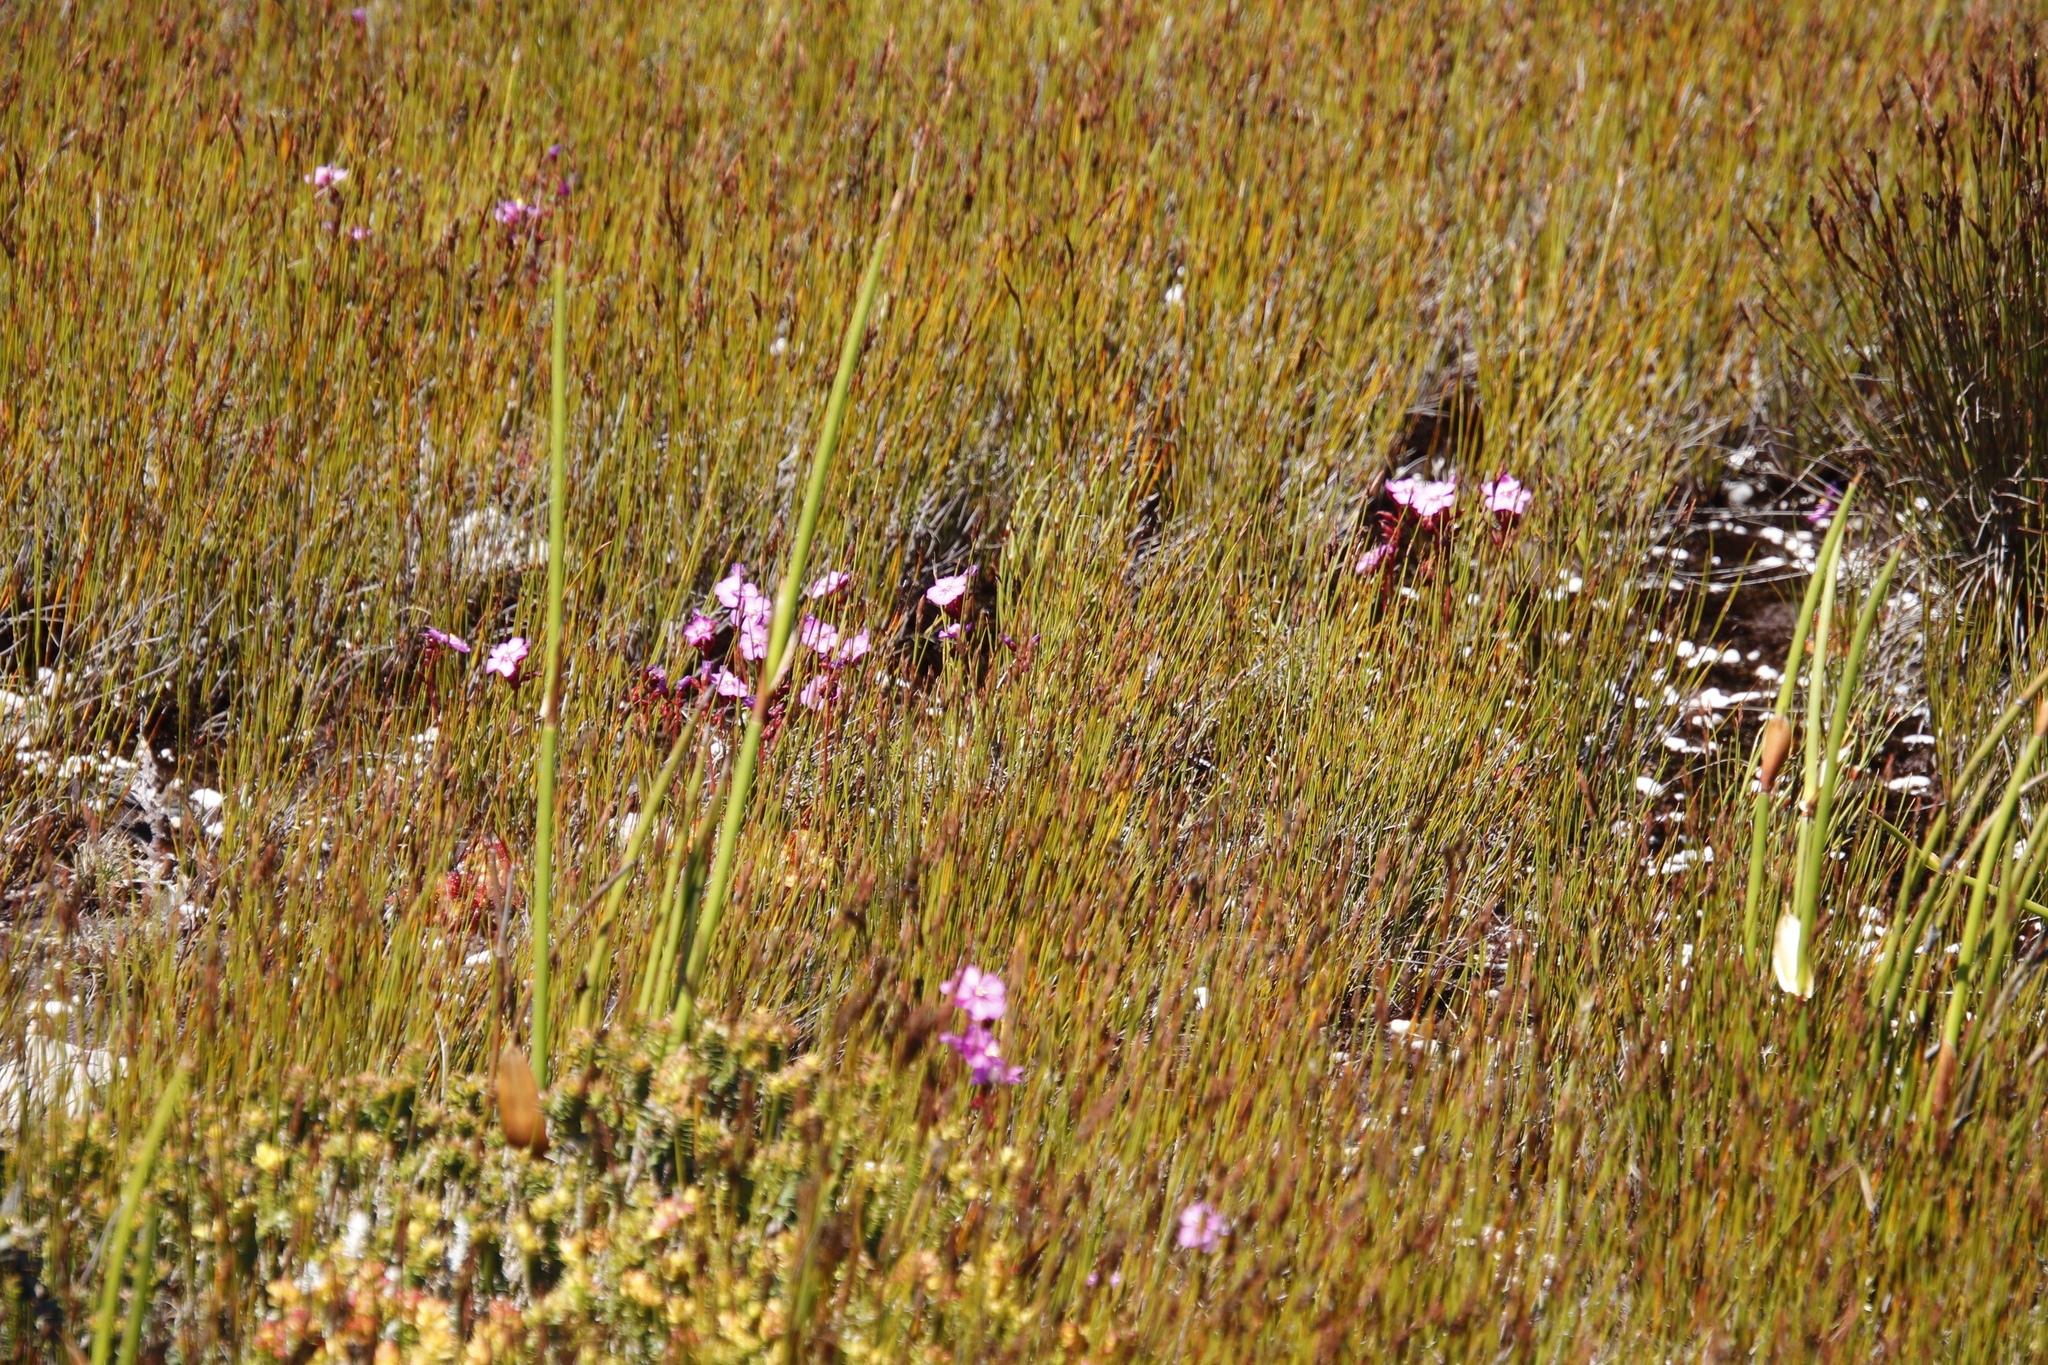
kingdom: Plantae
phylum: Tracheophyta
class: Magnoliopsida
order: Caryophyllales
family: Droseraceae
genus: Drosera
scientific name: Drosera cuneifolia
